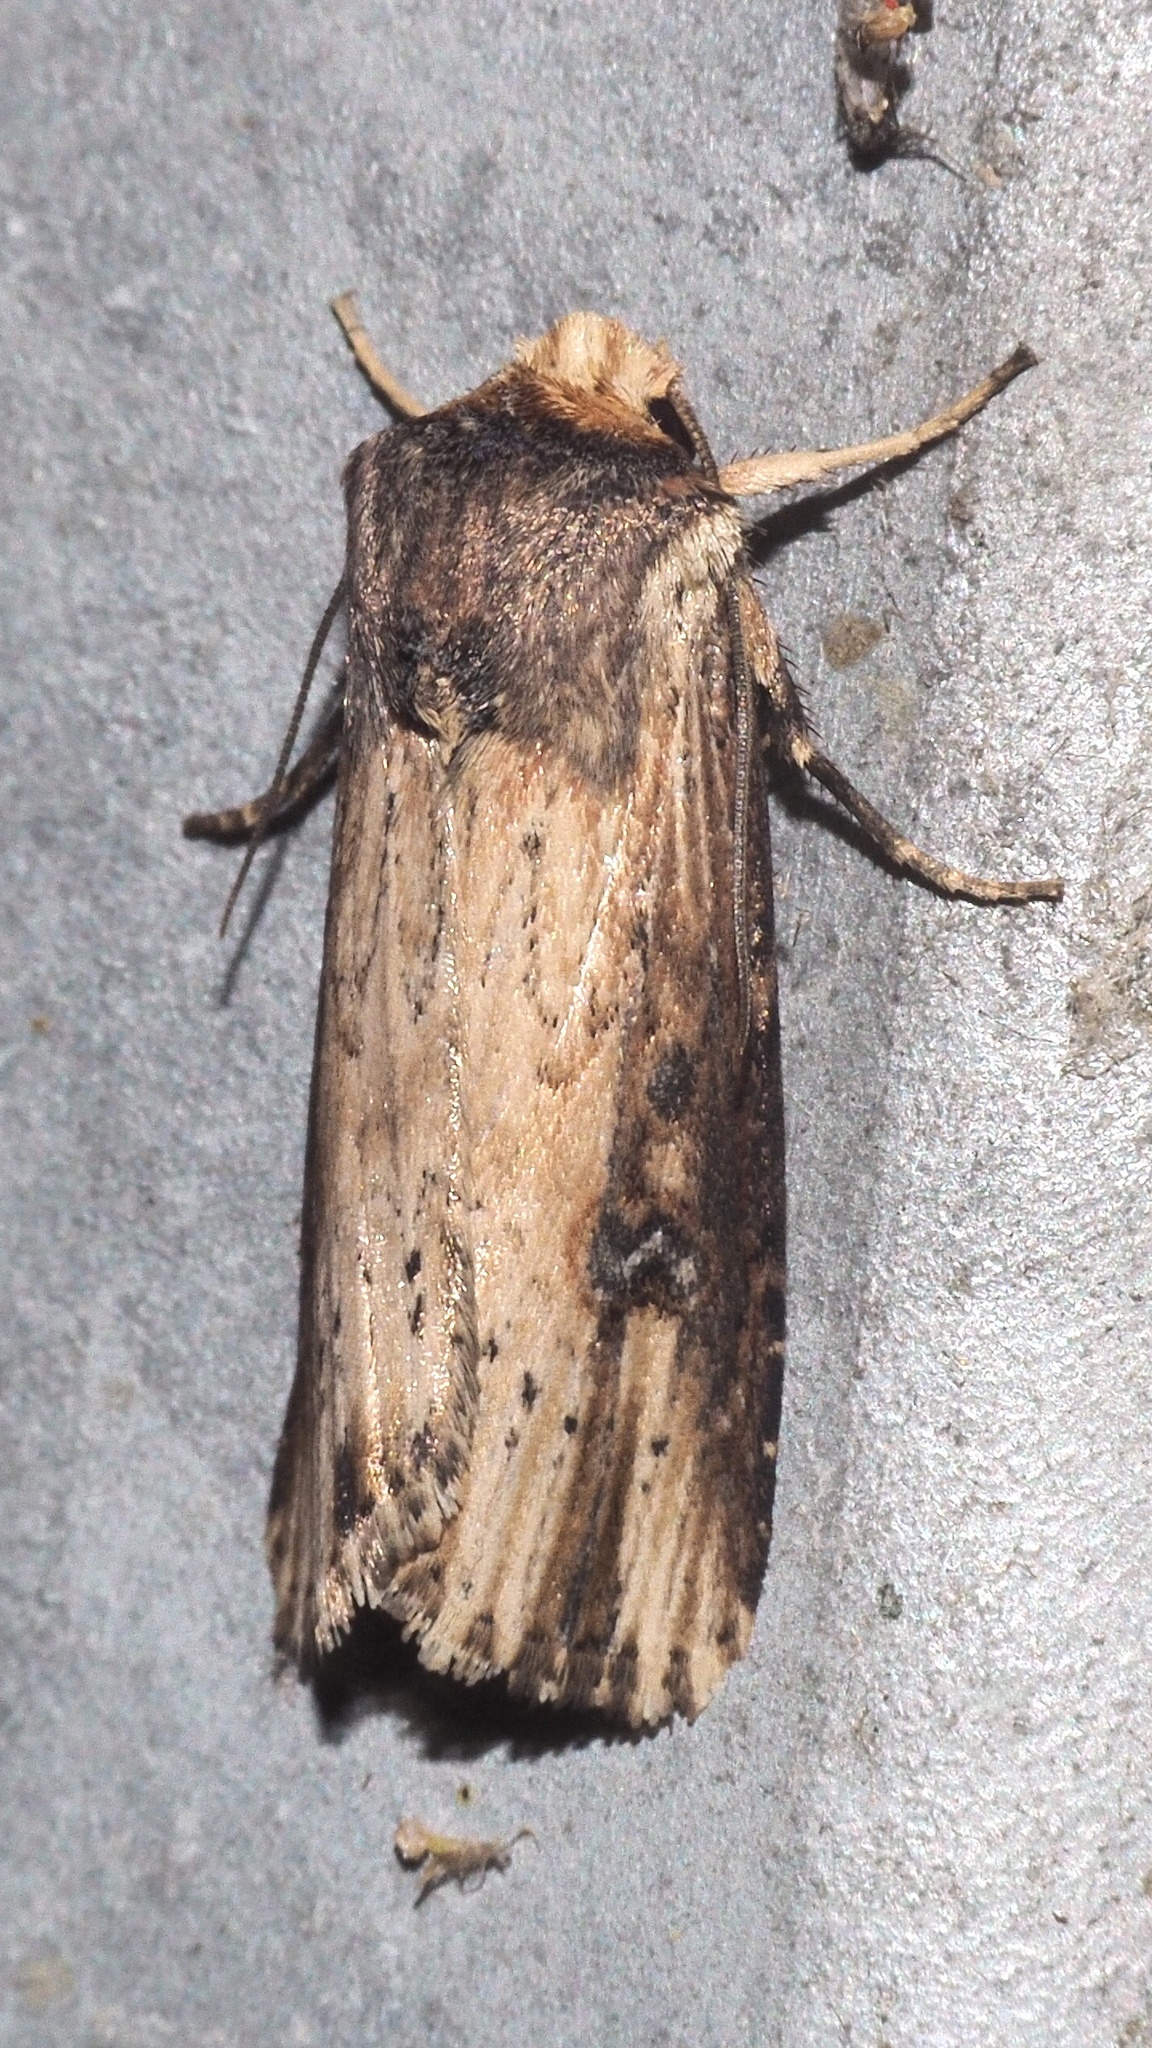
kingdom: Animalia
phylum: Arthropoda
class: Insecta
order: Lepidoptera
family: Noctuidae
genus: Axylia
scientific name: Axylia putris
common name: Flame
